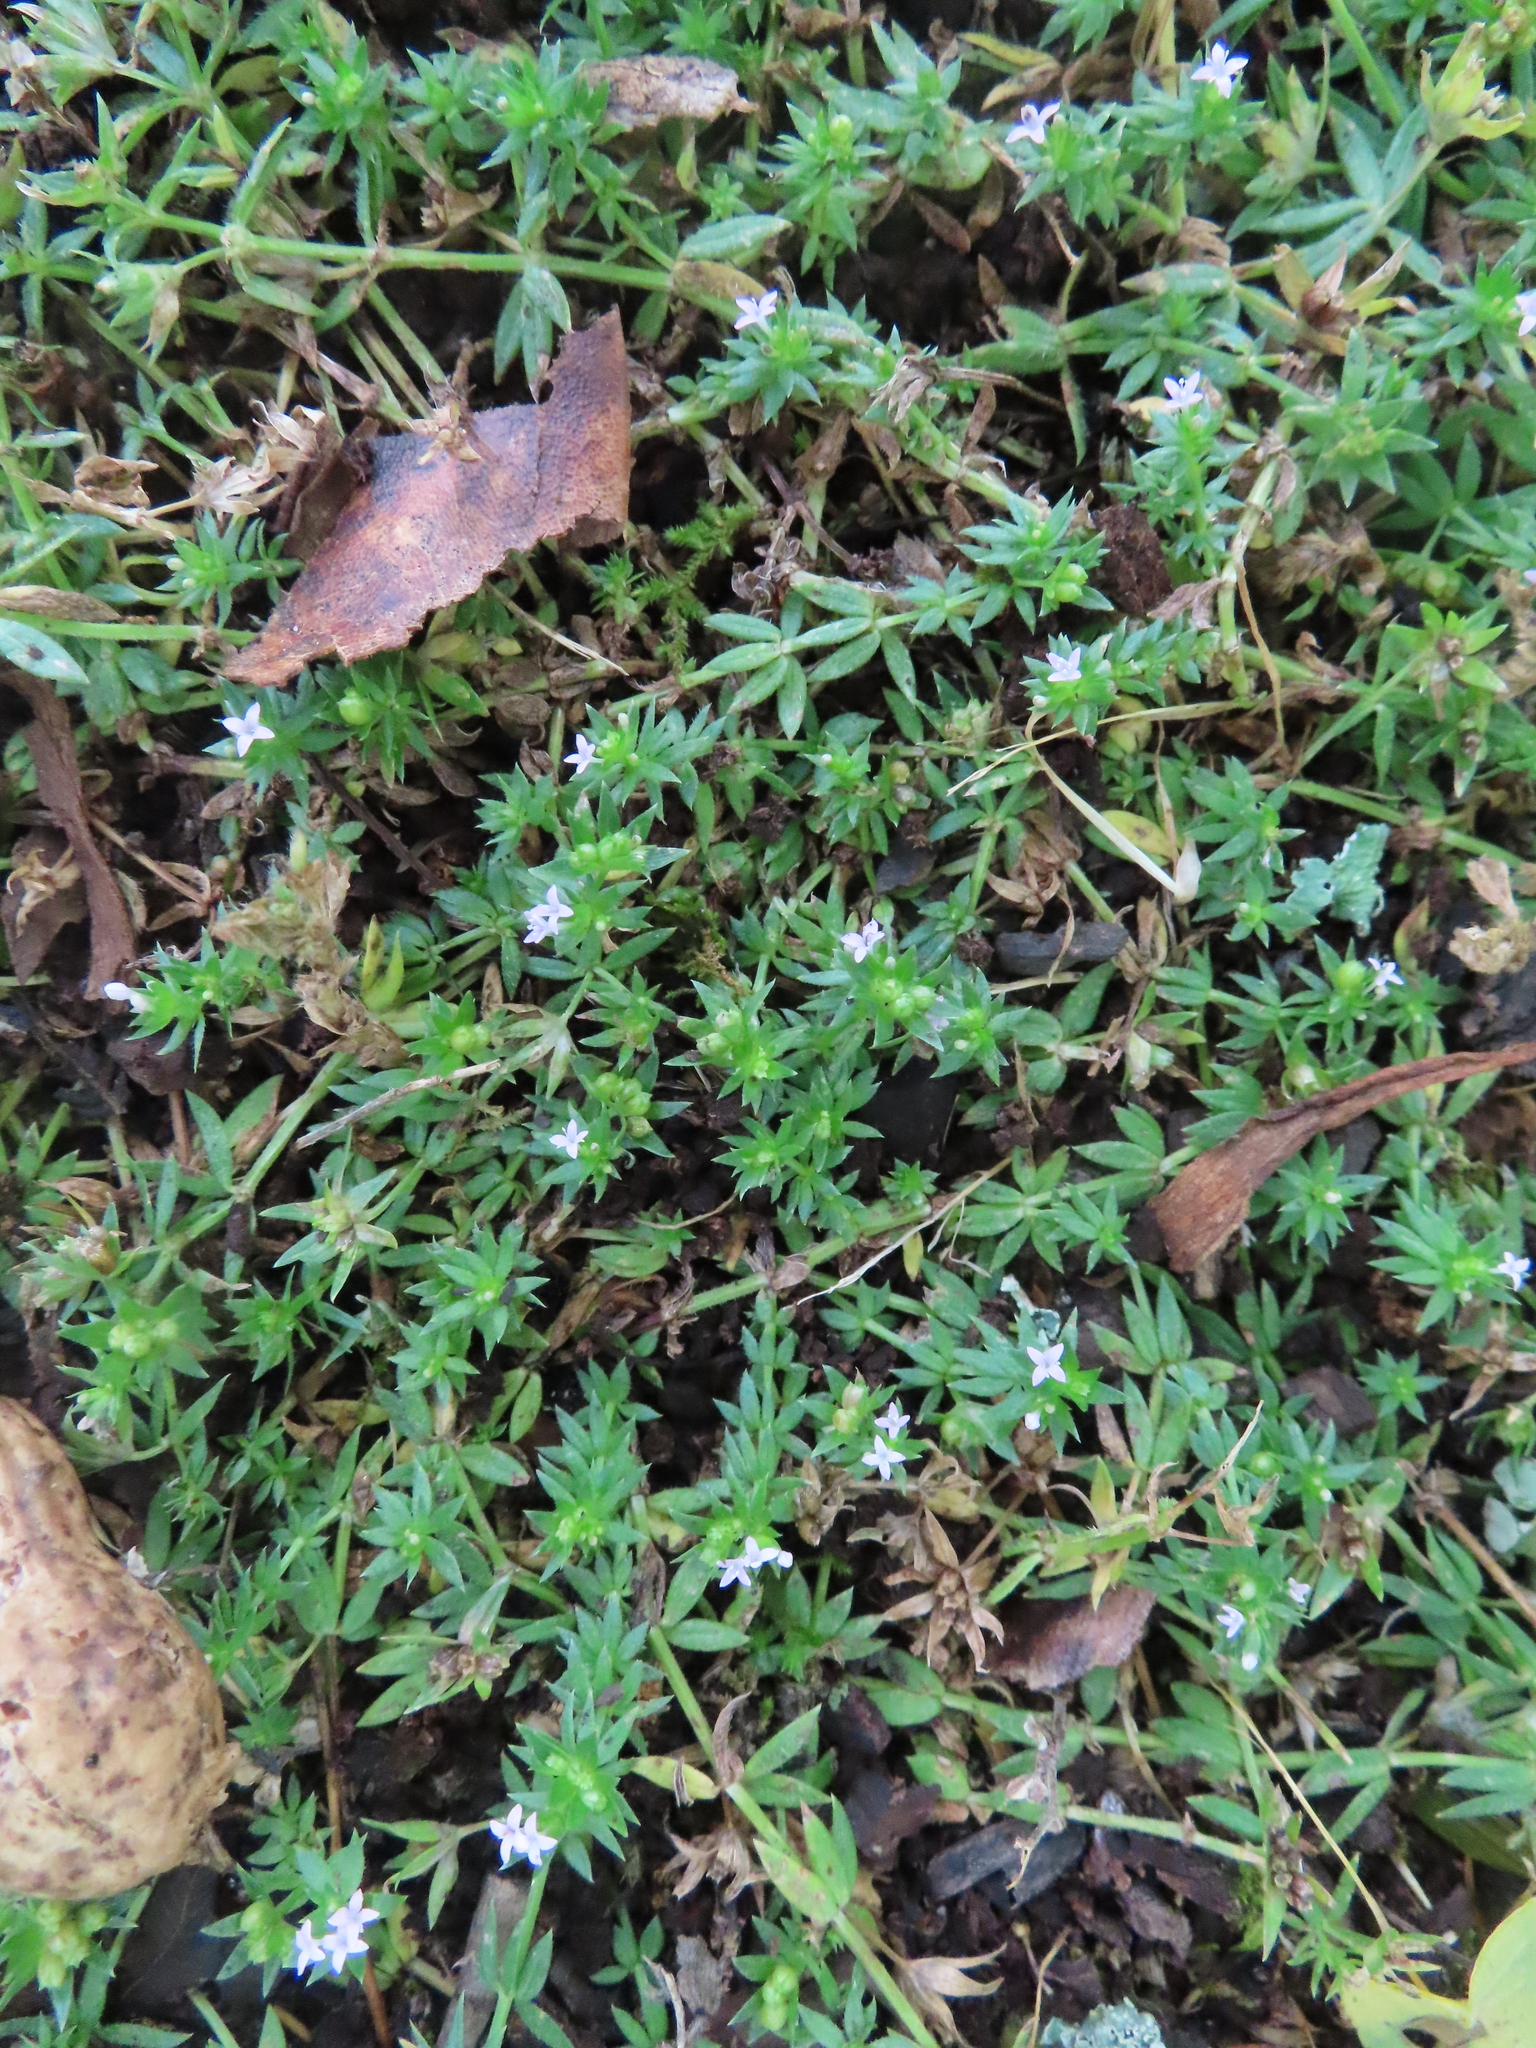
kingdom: Plantae
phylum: Tracheophyta
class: Magnoliopsida
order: Gentianales
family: Rubiaceae
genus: Sherardia
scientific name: Sherardia arvensis
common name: Field madder
